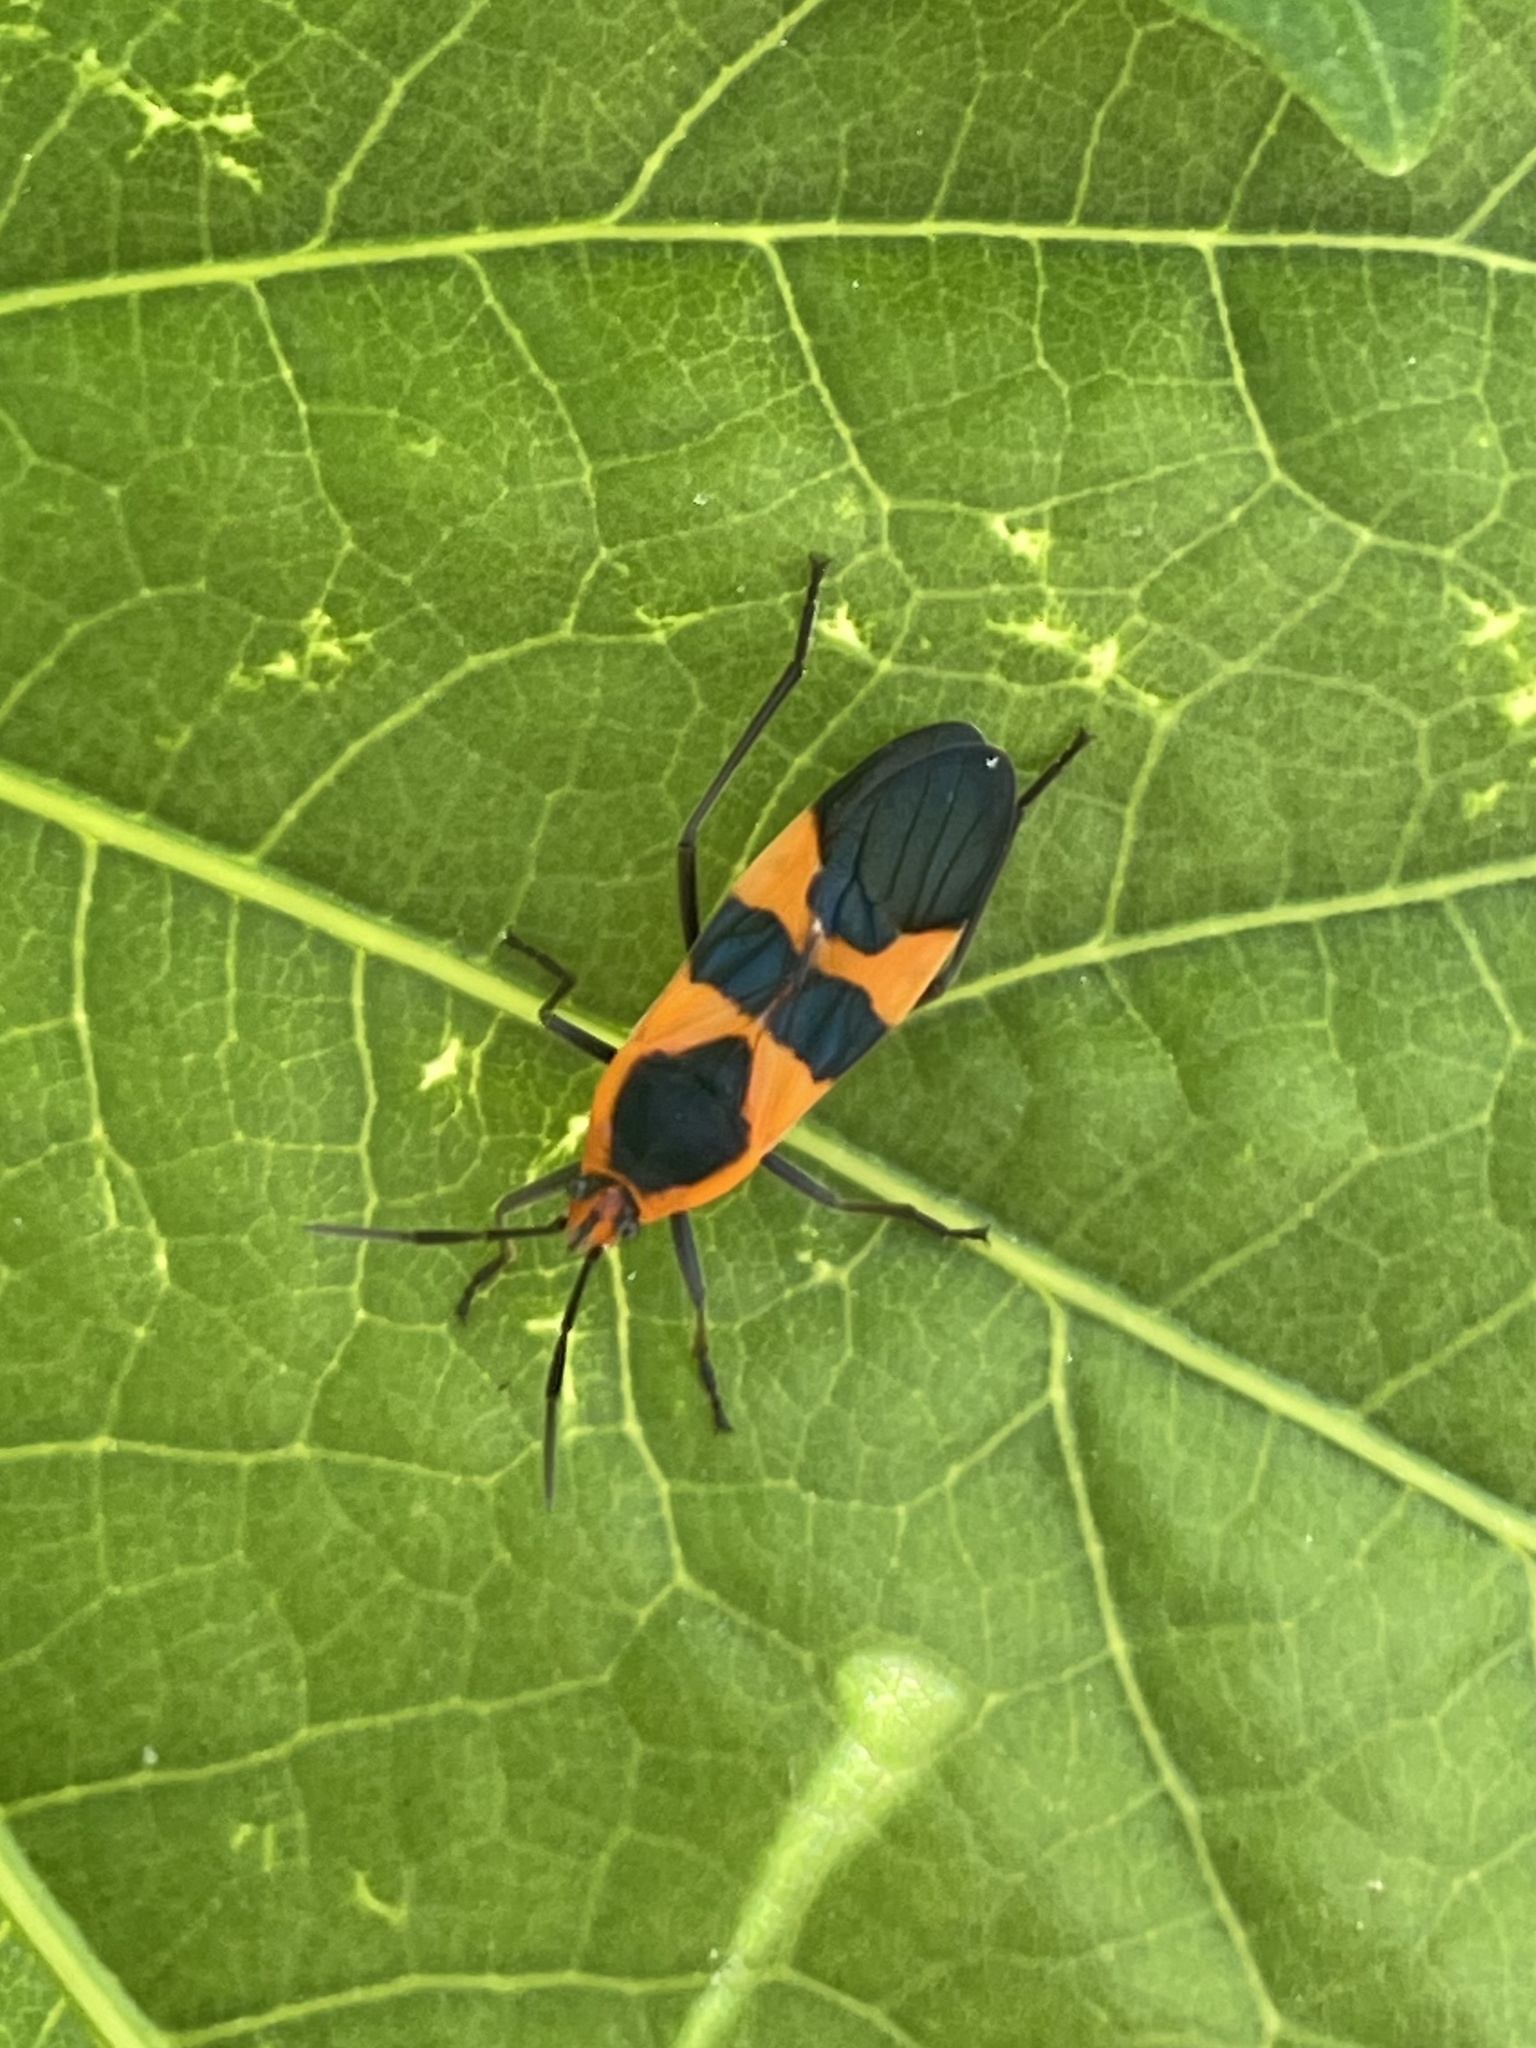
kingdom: Animalia
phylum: Arthropoda
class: Insecta
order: Hemiptera
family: Lygaeidae
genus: Oncopeltus
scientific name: Oncopeltus fasciatus
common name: Large milkweed bug
